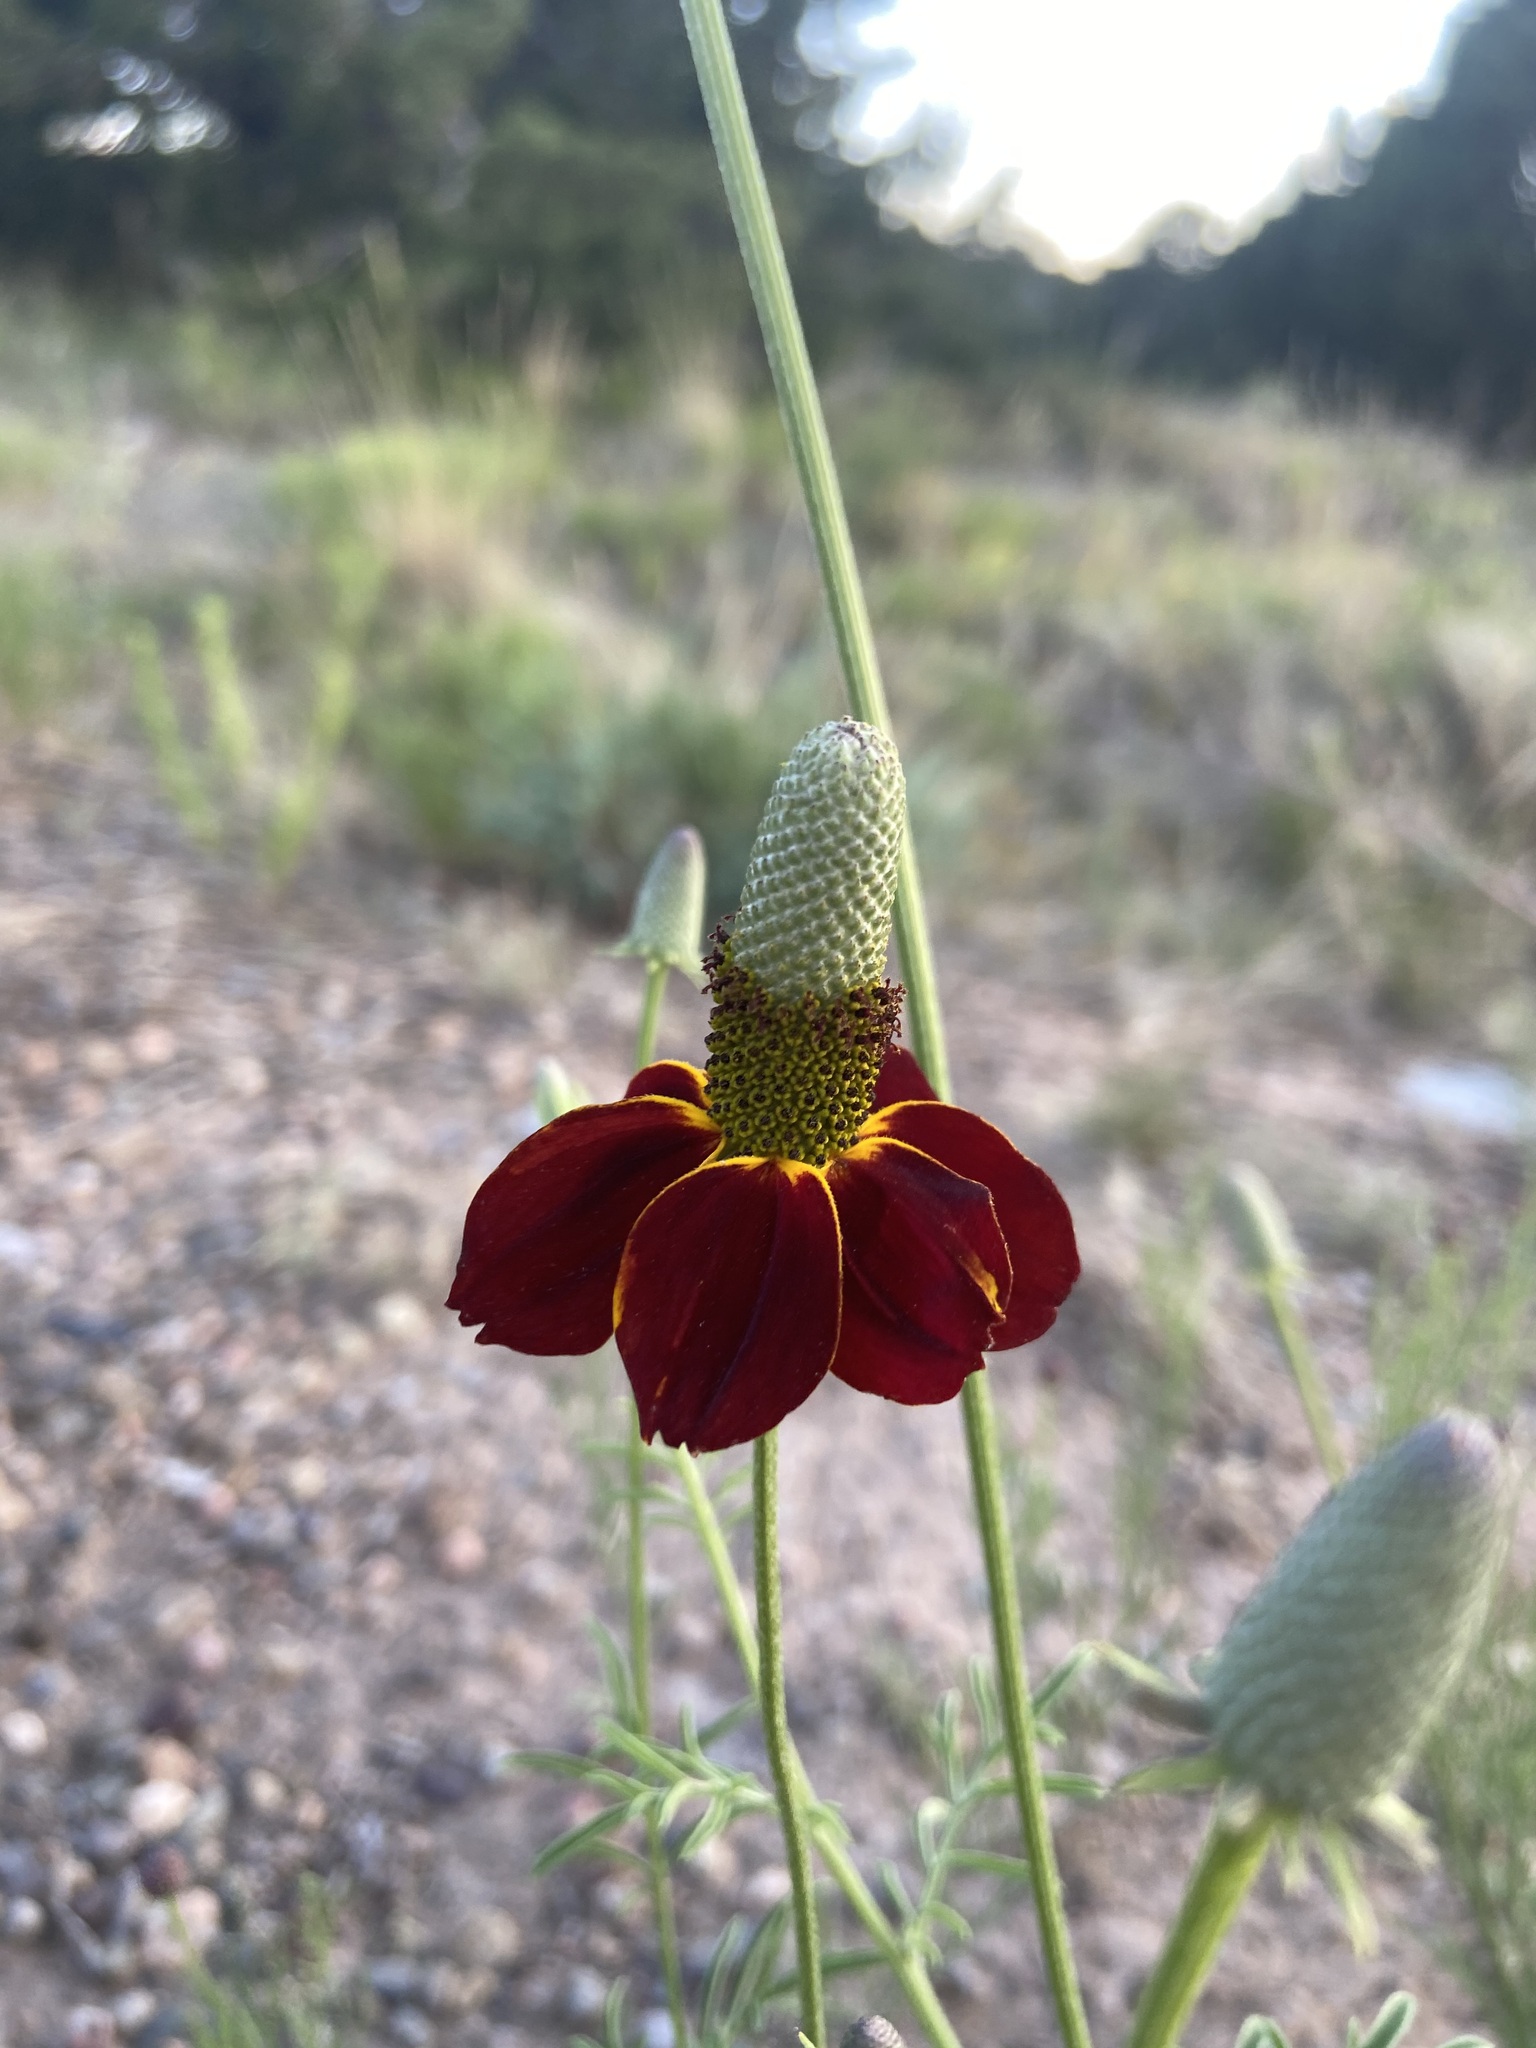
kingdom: Plantae
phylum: Tracheophyta
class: Magnoliopsida
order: Asterales
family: Asteraceae
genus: Ratibida
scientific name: Ratibida columnifera
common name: Prairie coneflower
